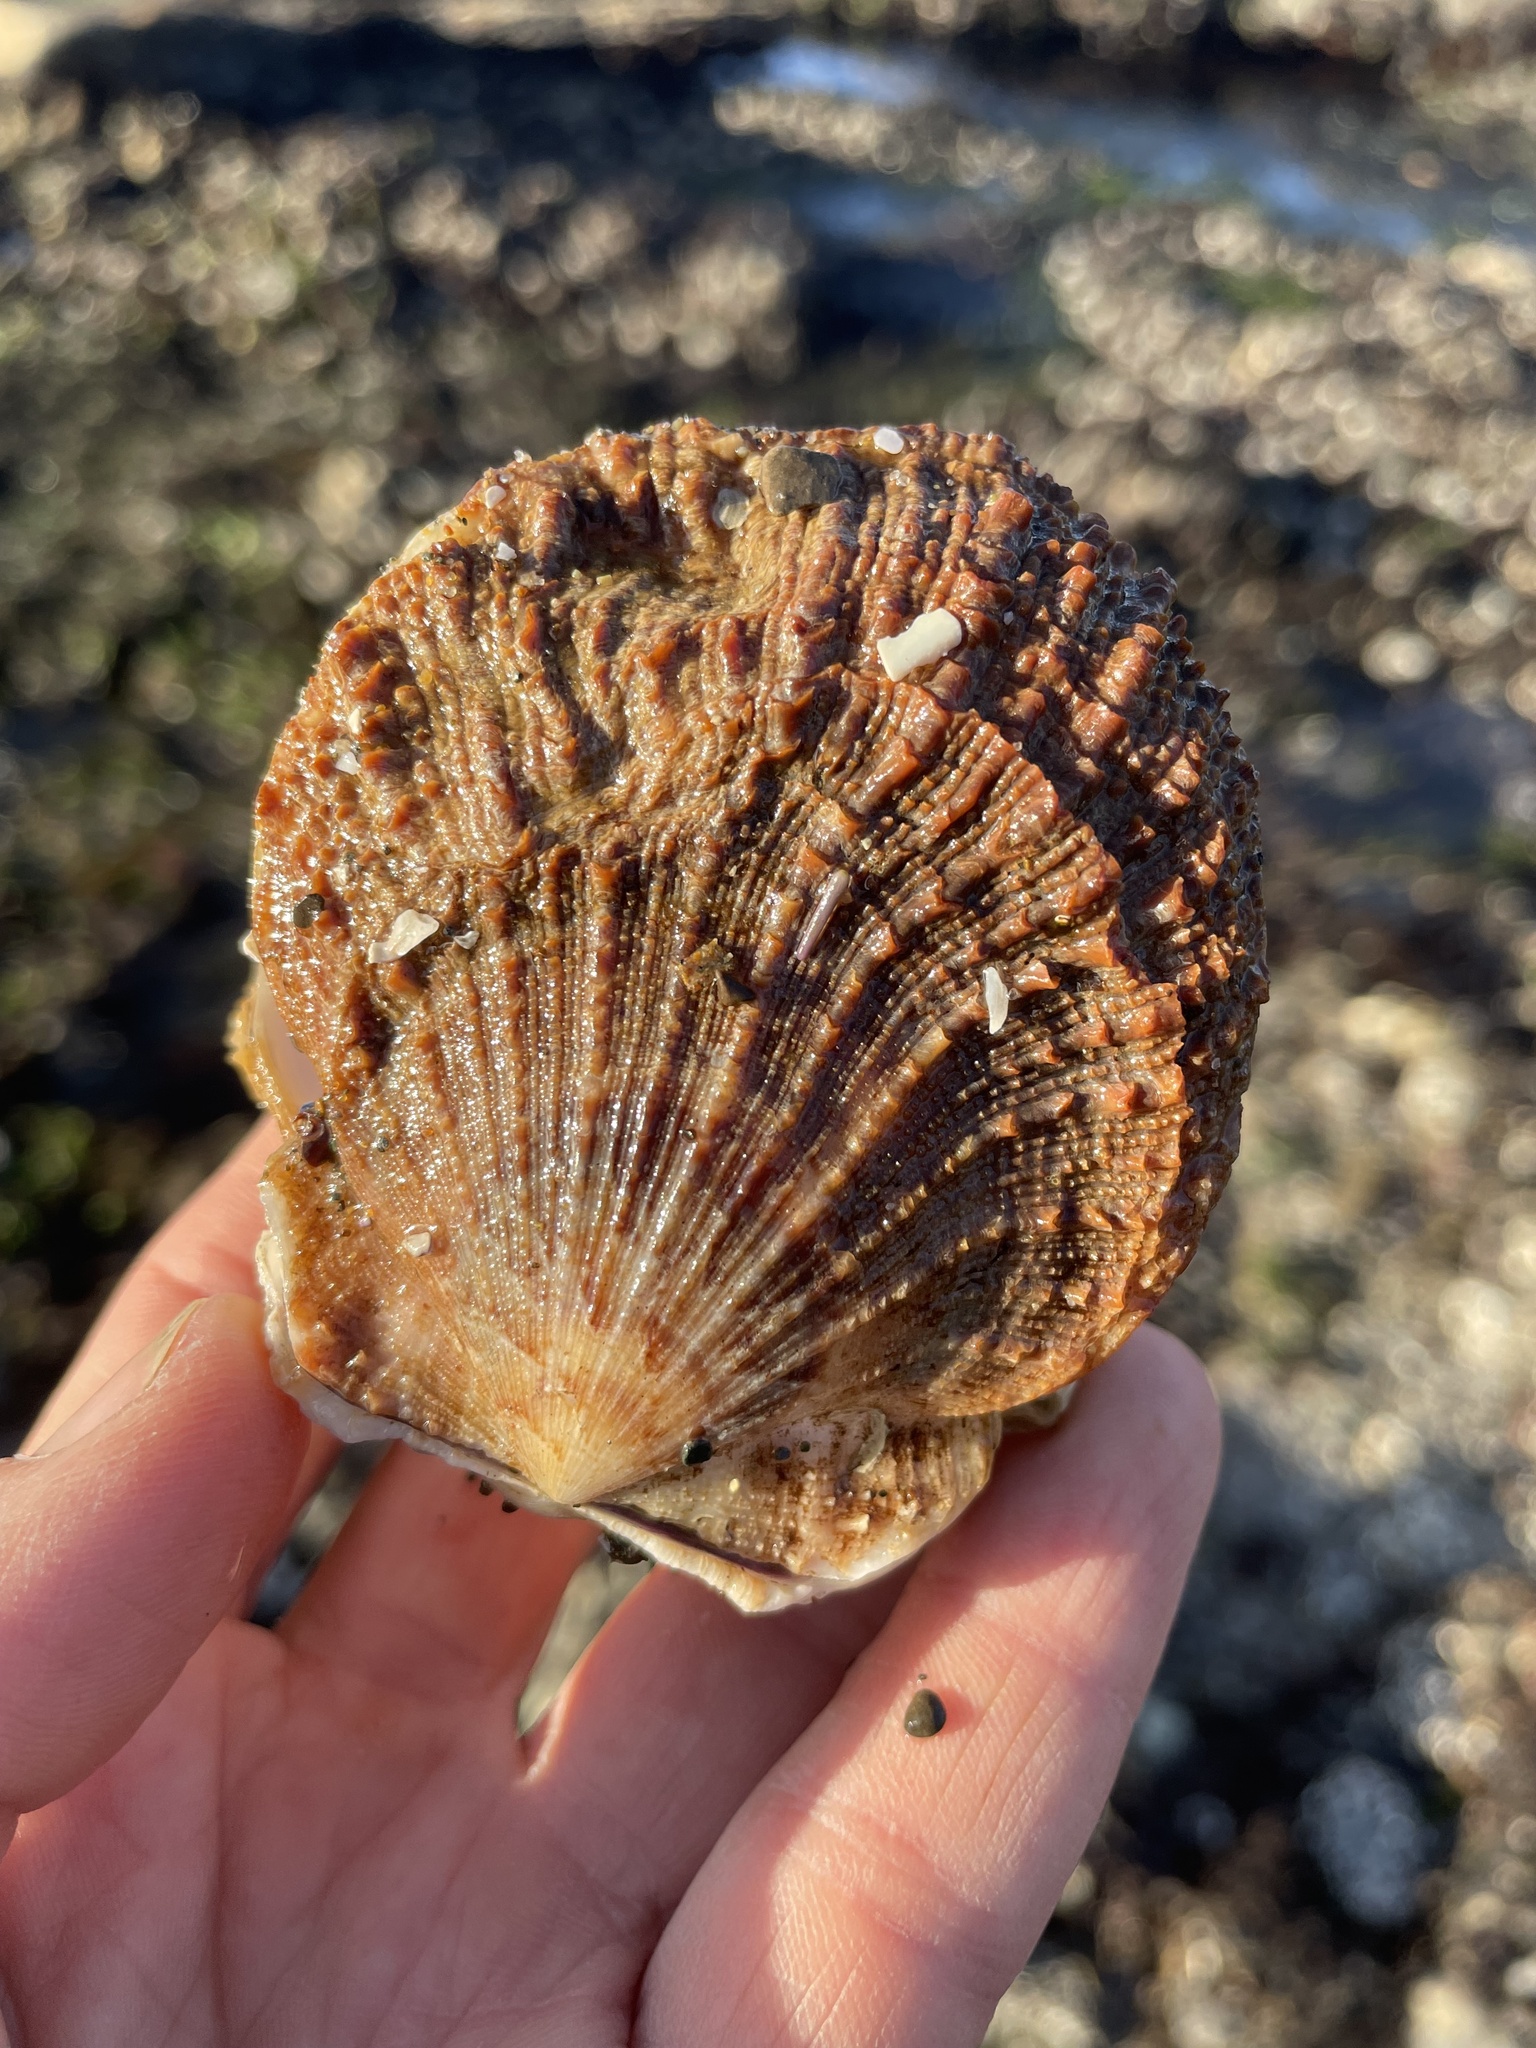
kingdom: Animalia
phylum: Mollusca
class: Bivalvia
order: Pectinida
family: Pectinidae
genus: Crassadoma
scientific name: Crassadoma gigantea
